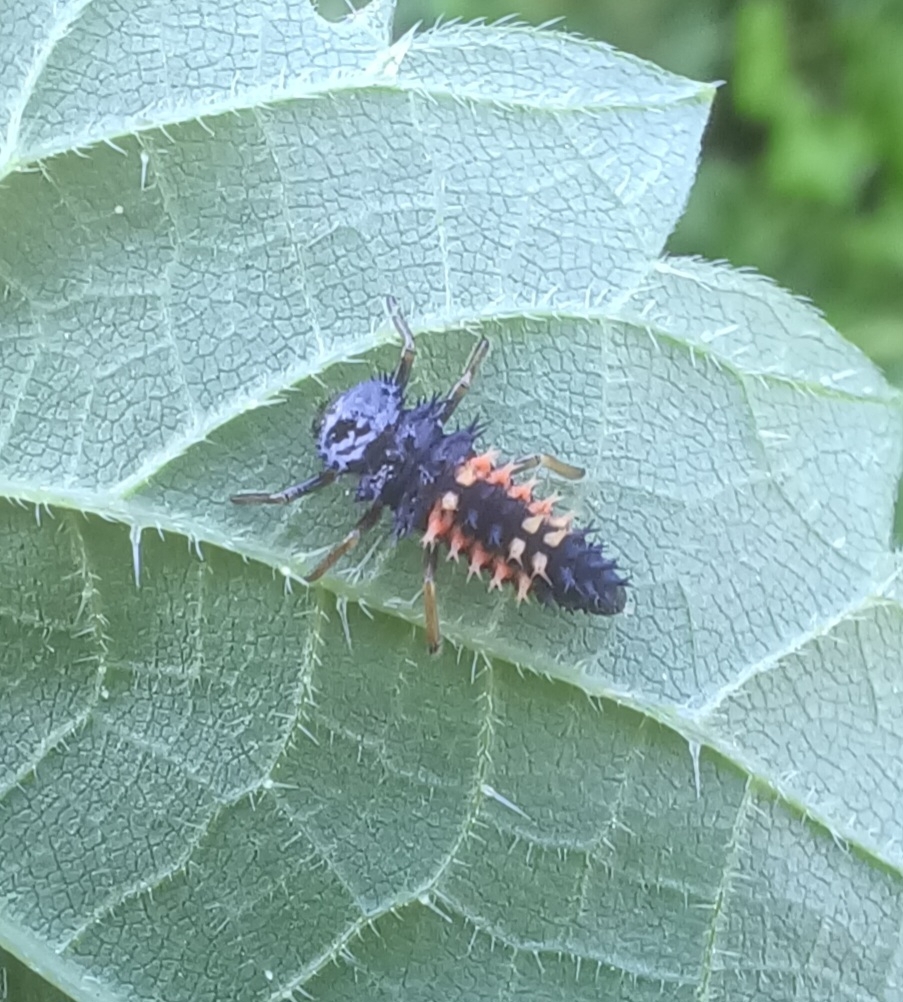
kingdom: Animalia
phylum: Arthropoda
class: Insecta
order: Coleoptera
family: Coccinellidae
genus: Harmonia
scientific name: Harmonia axyridis
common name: Harlequin ladybird
